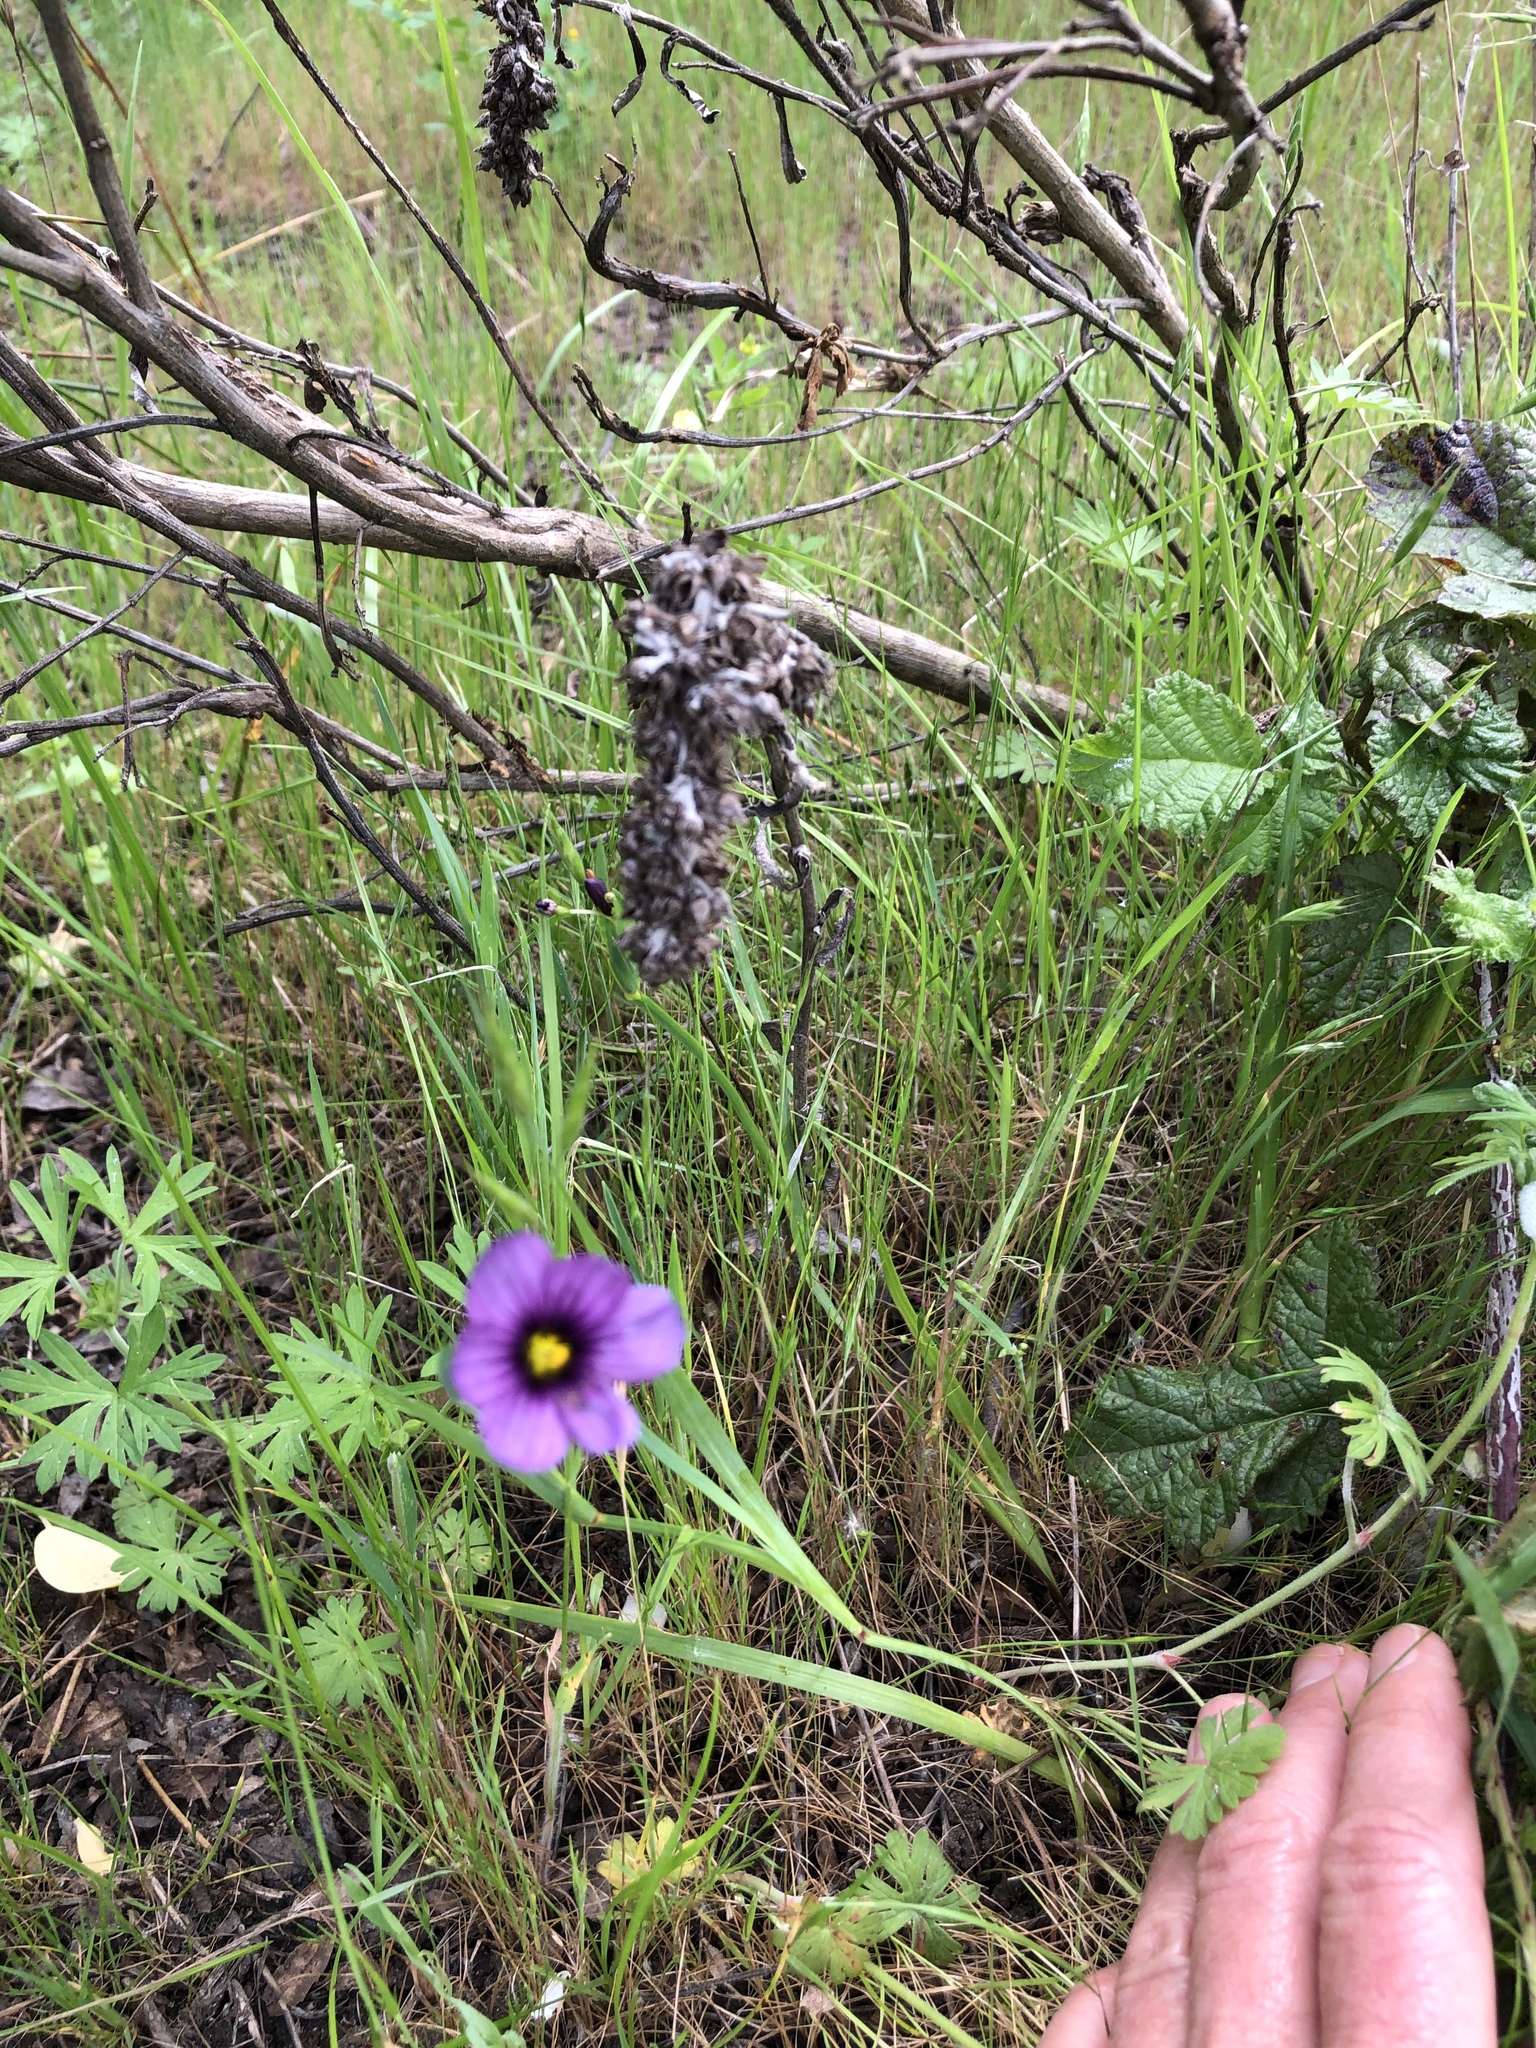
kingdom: Plantae
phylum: Tracheophyta
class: Liliopsida
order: Asparagales
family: Iridaceae
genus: Sisyrinchium
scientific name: Sisyrinchium bellum
